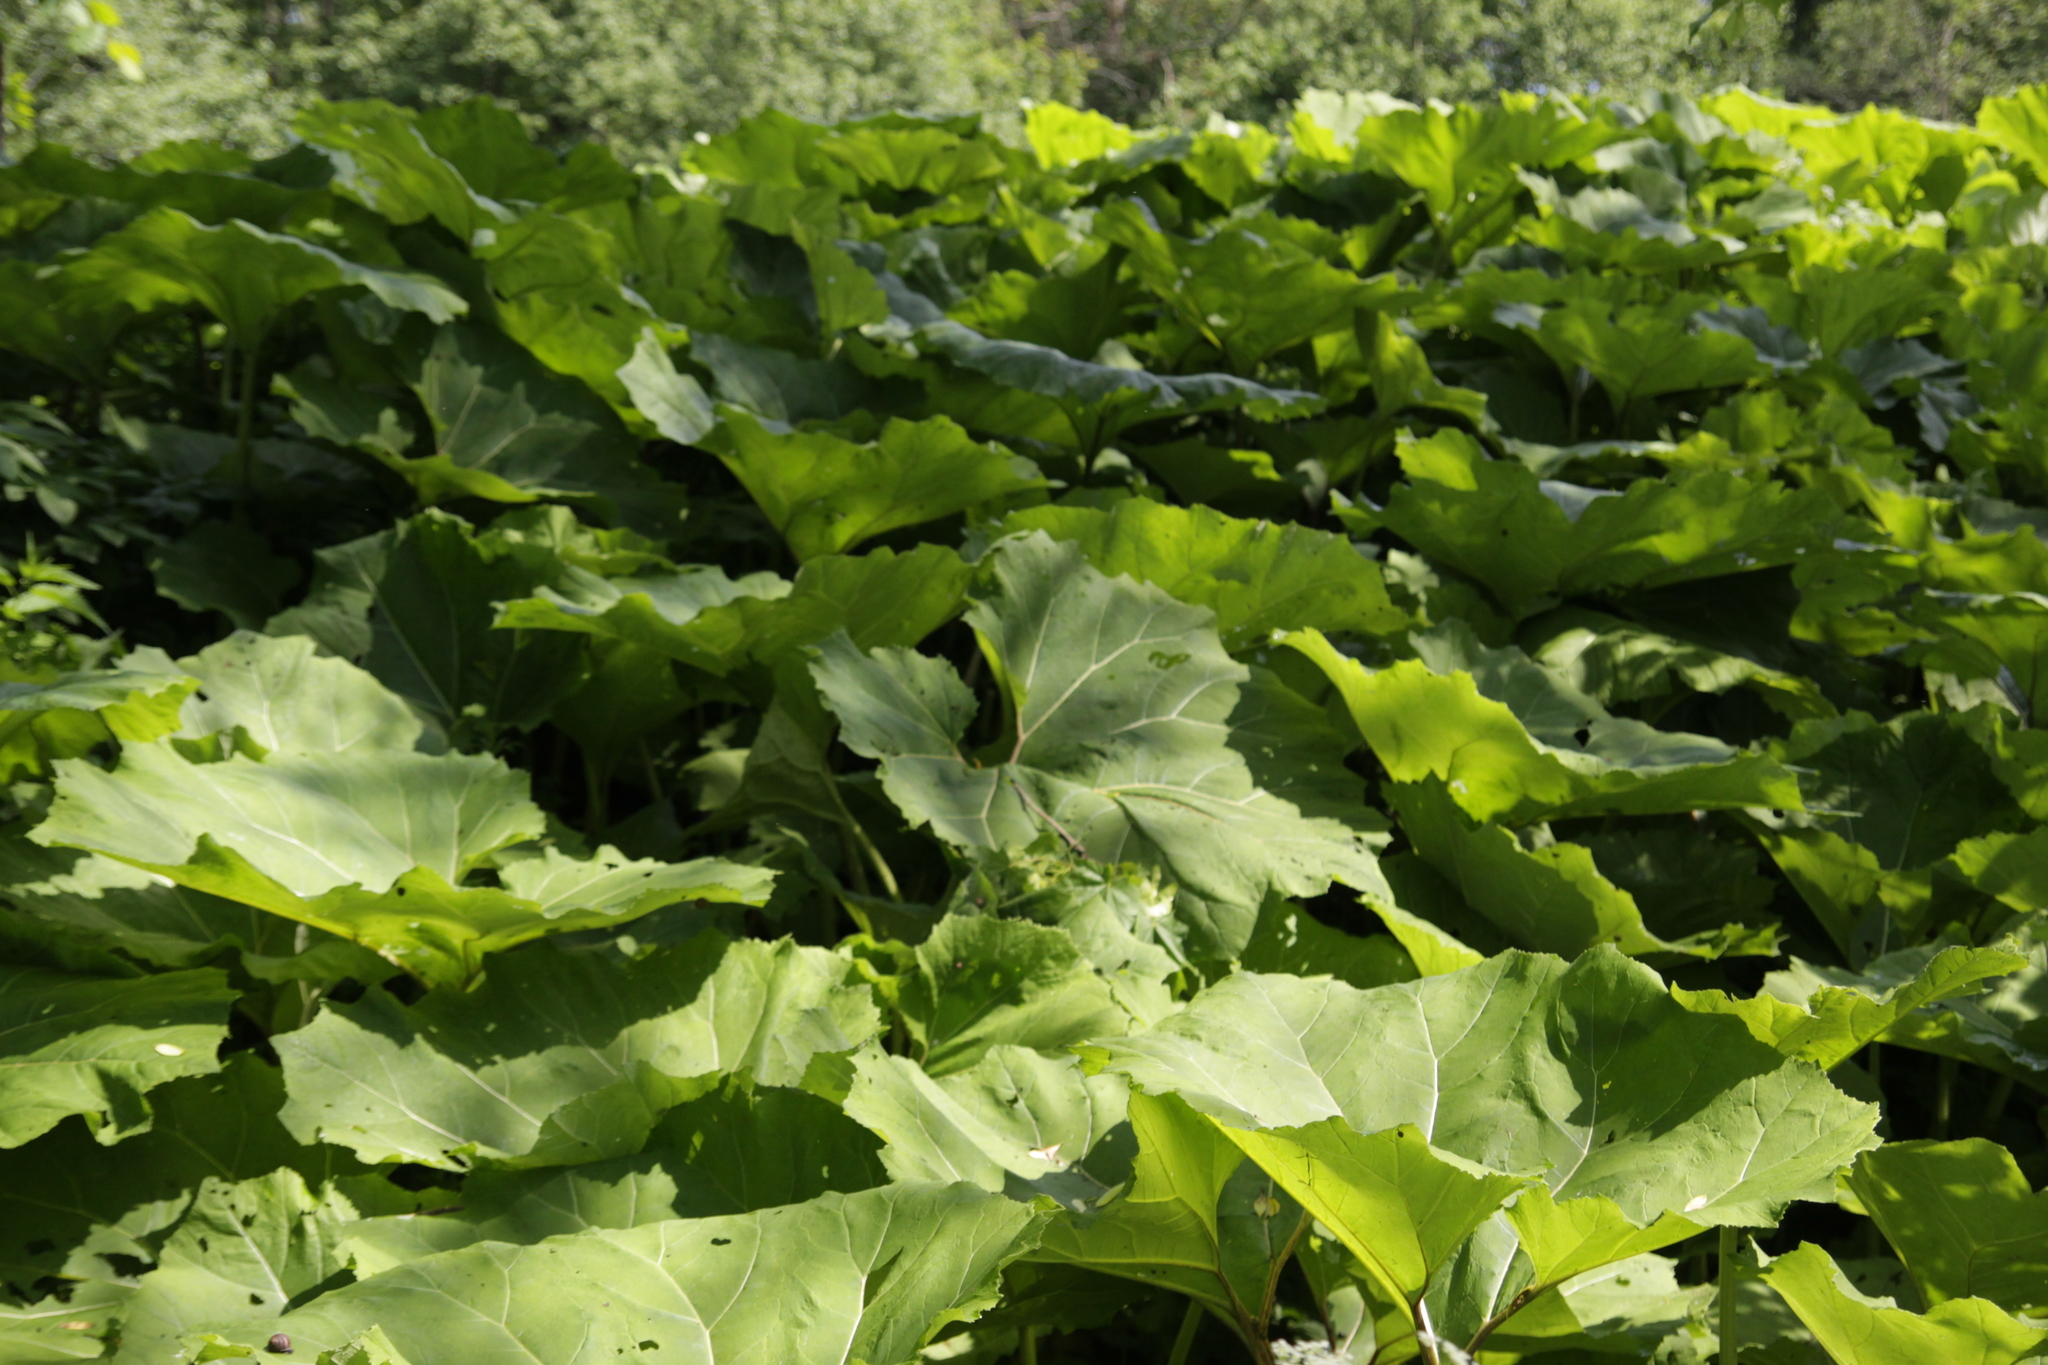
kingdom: Plantae
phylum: Tracheophyta
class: Magnoliopsida
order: Asterales
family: Asteraceae
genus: Petasites
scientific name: Petasites hybridus
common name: Butterbur
